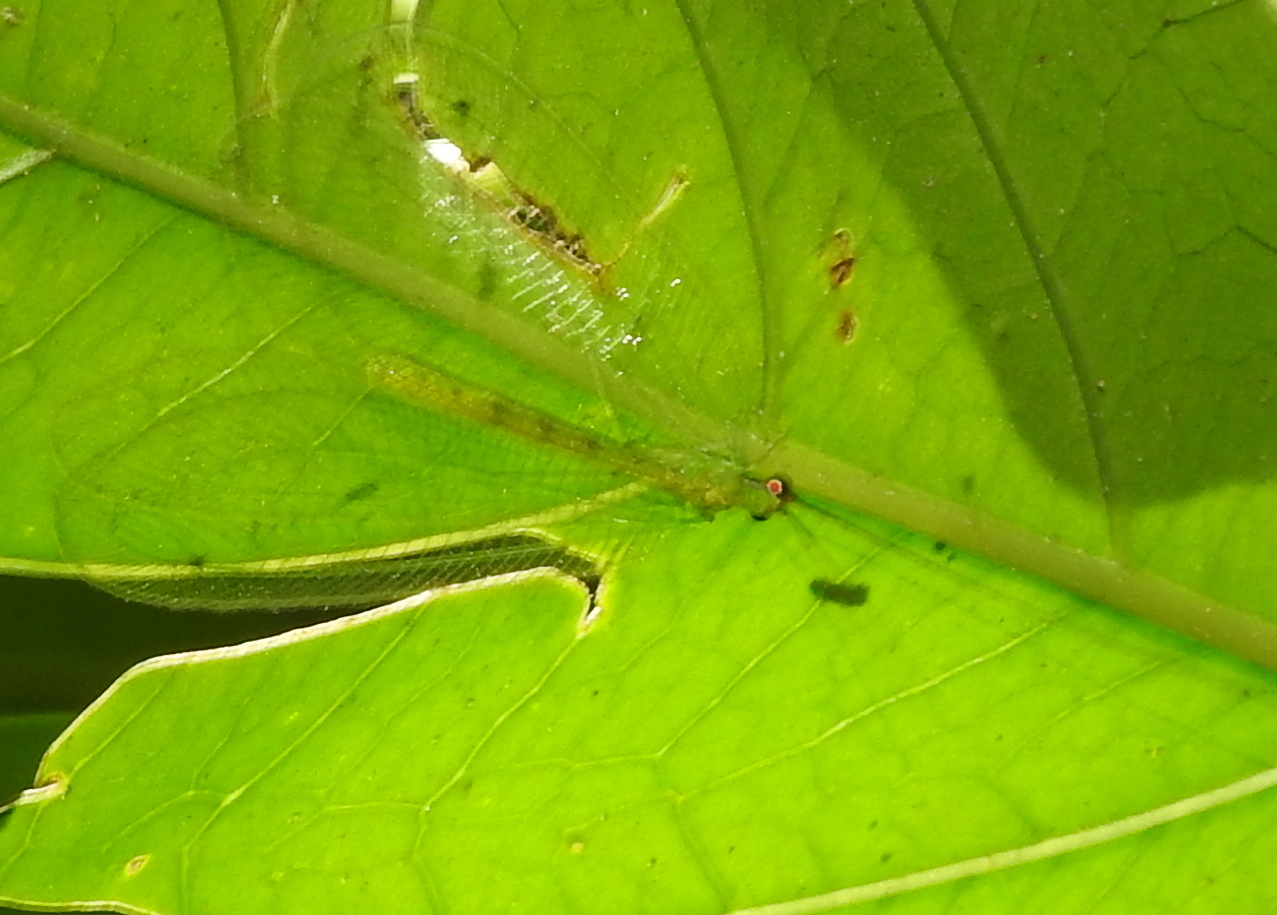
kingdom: Animalia
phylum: Arthropoda
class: Insecta
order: Neuroptera
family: Chrysopidae
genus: Apochrysa
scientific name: Apochrysa evanida
